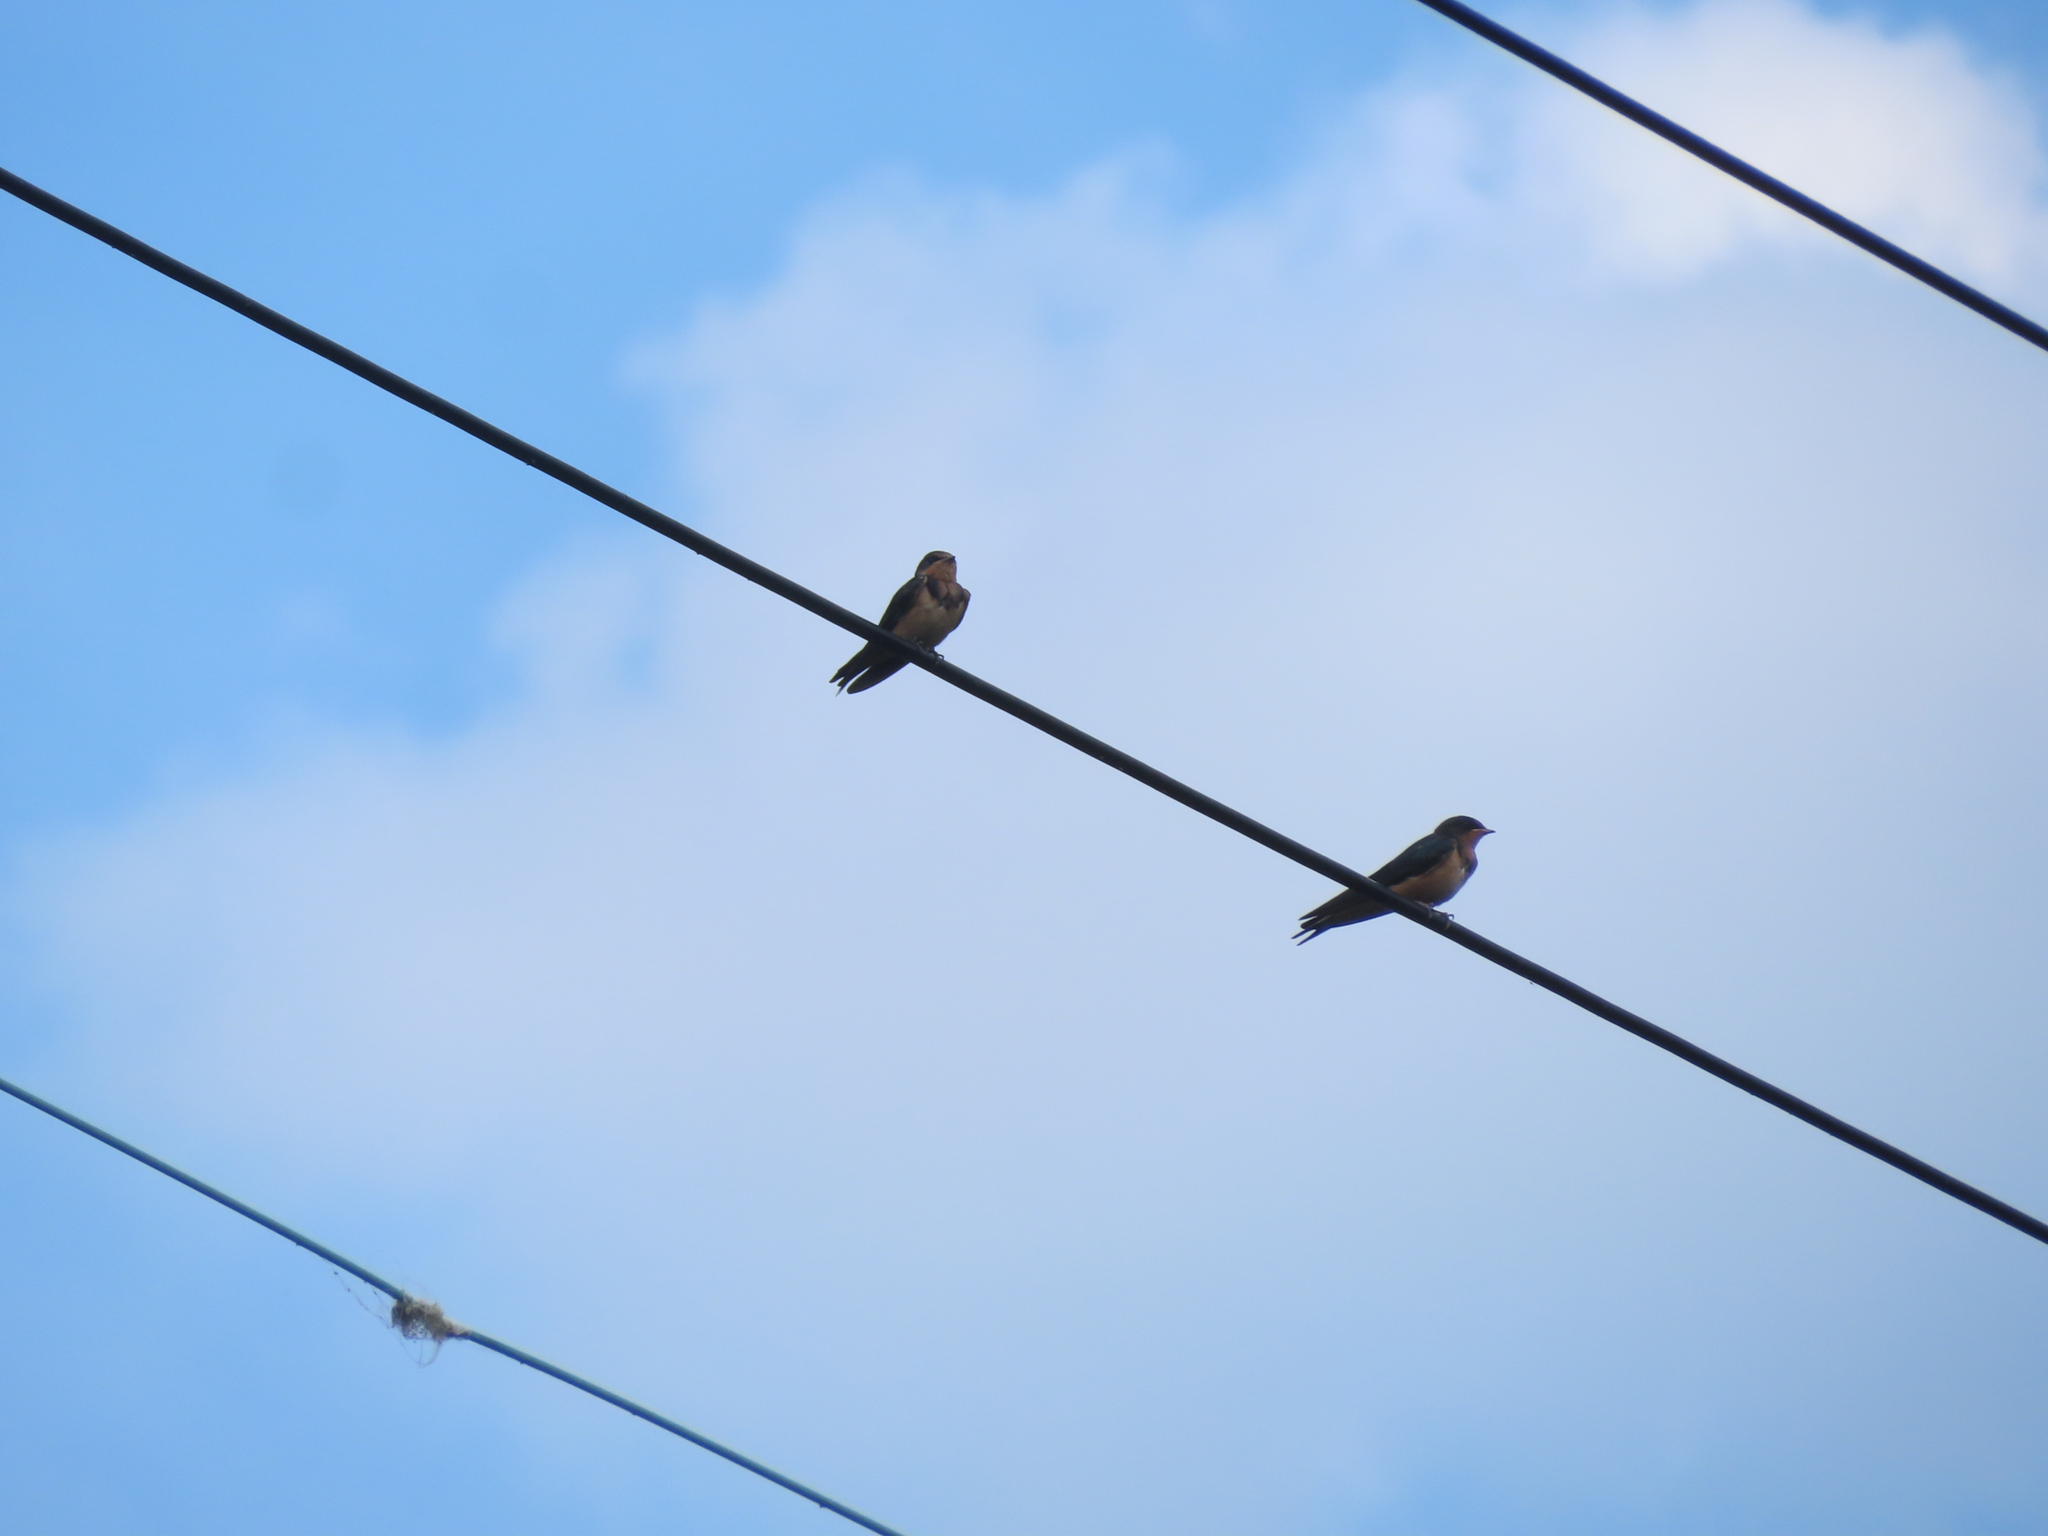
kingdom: Animalia
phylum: Chordata
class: Aves
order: Passeriformes
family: Hirundinidae
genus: Hirundo
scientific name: Hirundo rustica
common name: Barn swallow
